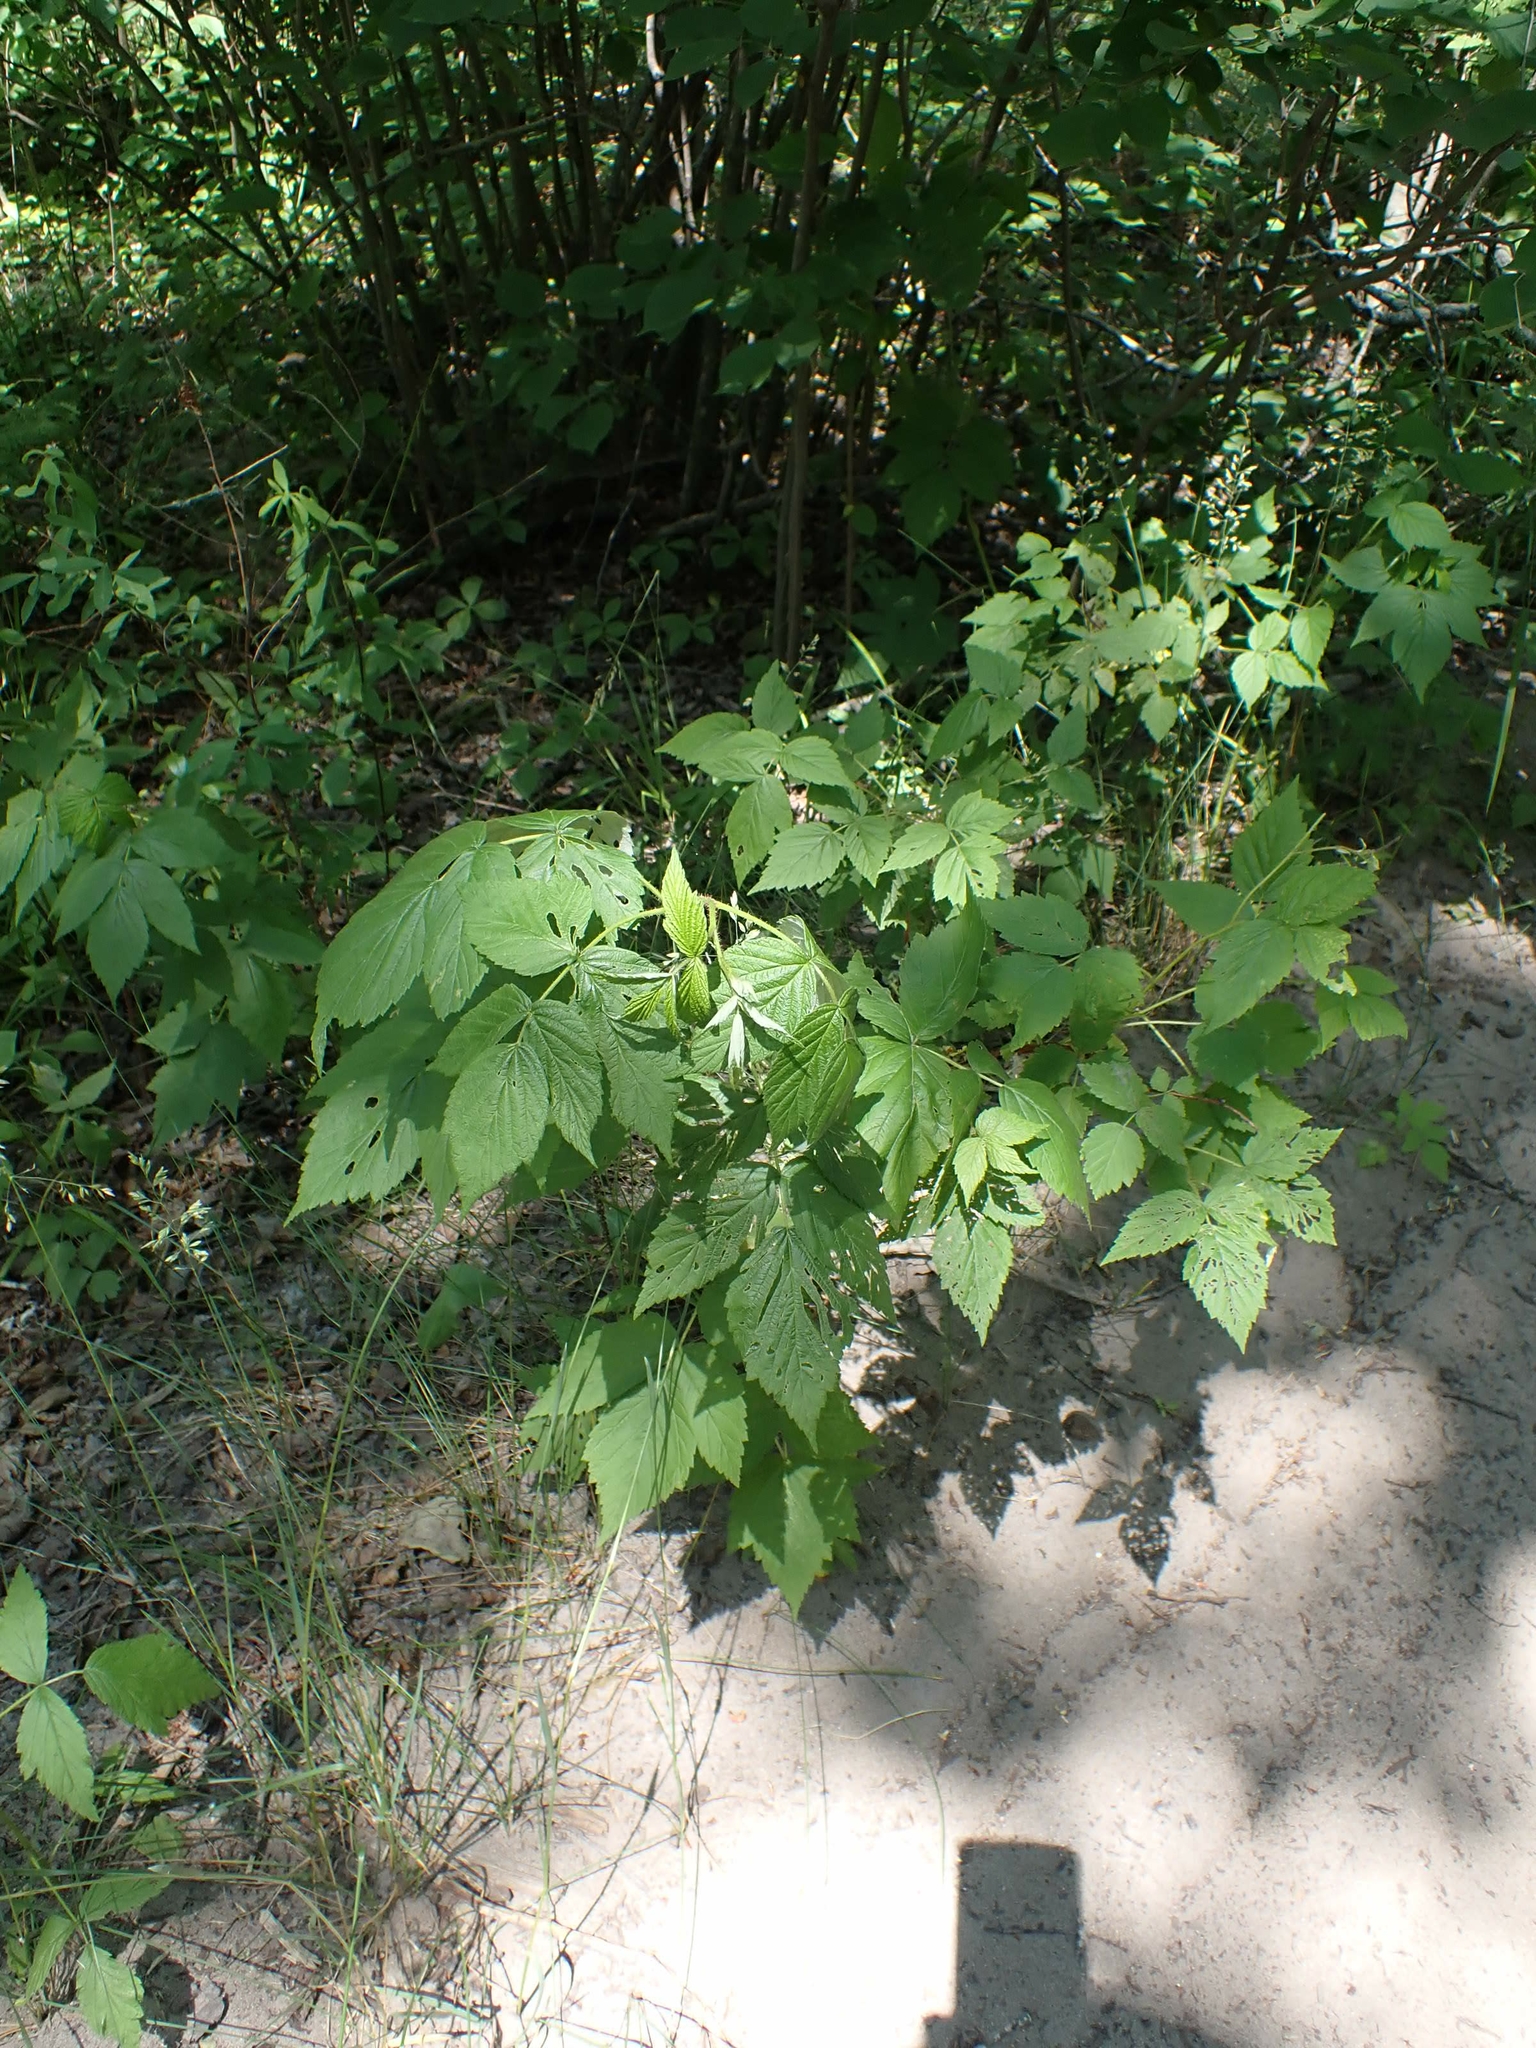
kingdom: Plantae
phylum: Tracheophyta
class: Magnoliopsida
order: Rosales
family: Rosaceae
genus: Rubus
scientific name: Rubus idaeus
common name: Raspberry
